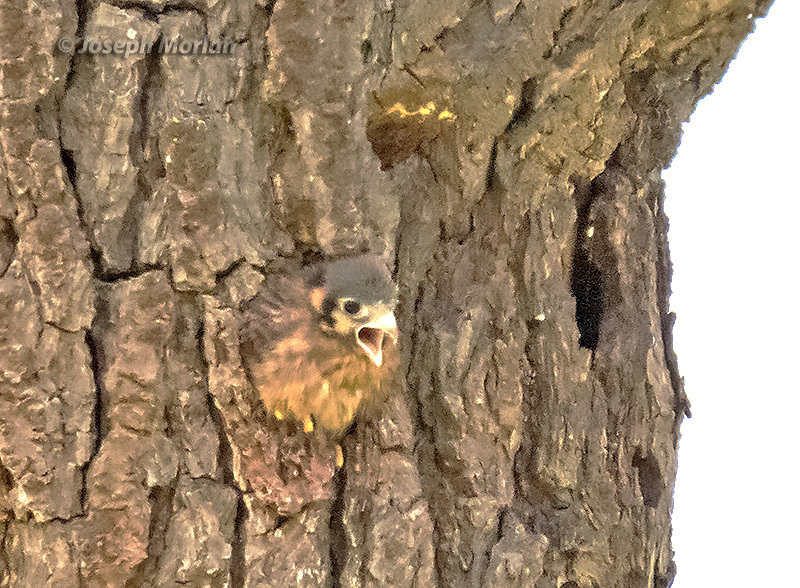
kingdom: Animalia
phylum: Chordata
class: Aves
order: Falconiformes
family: Falconidae
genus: Falco
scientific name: Falco sparverius
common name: American kestrel
